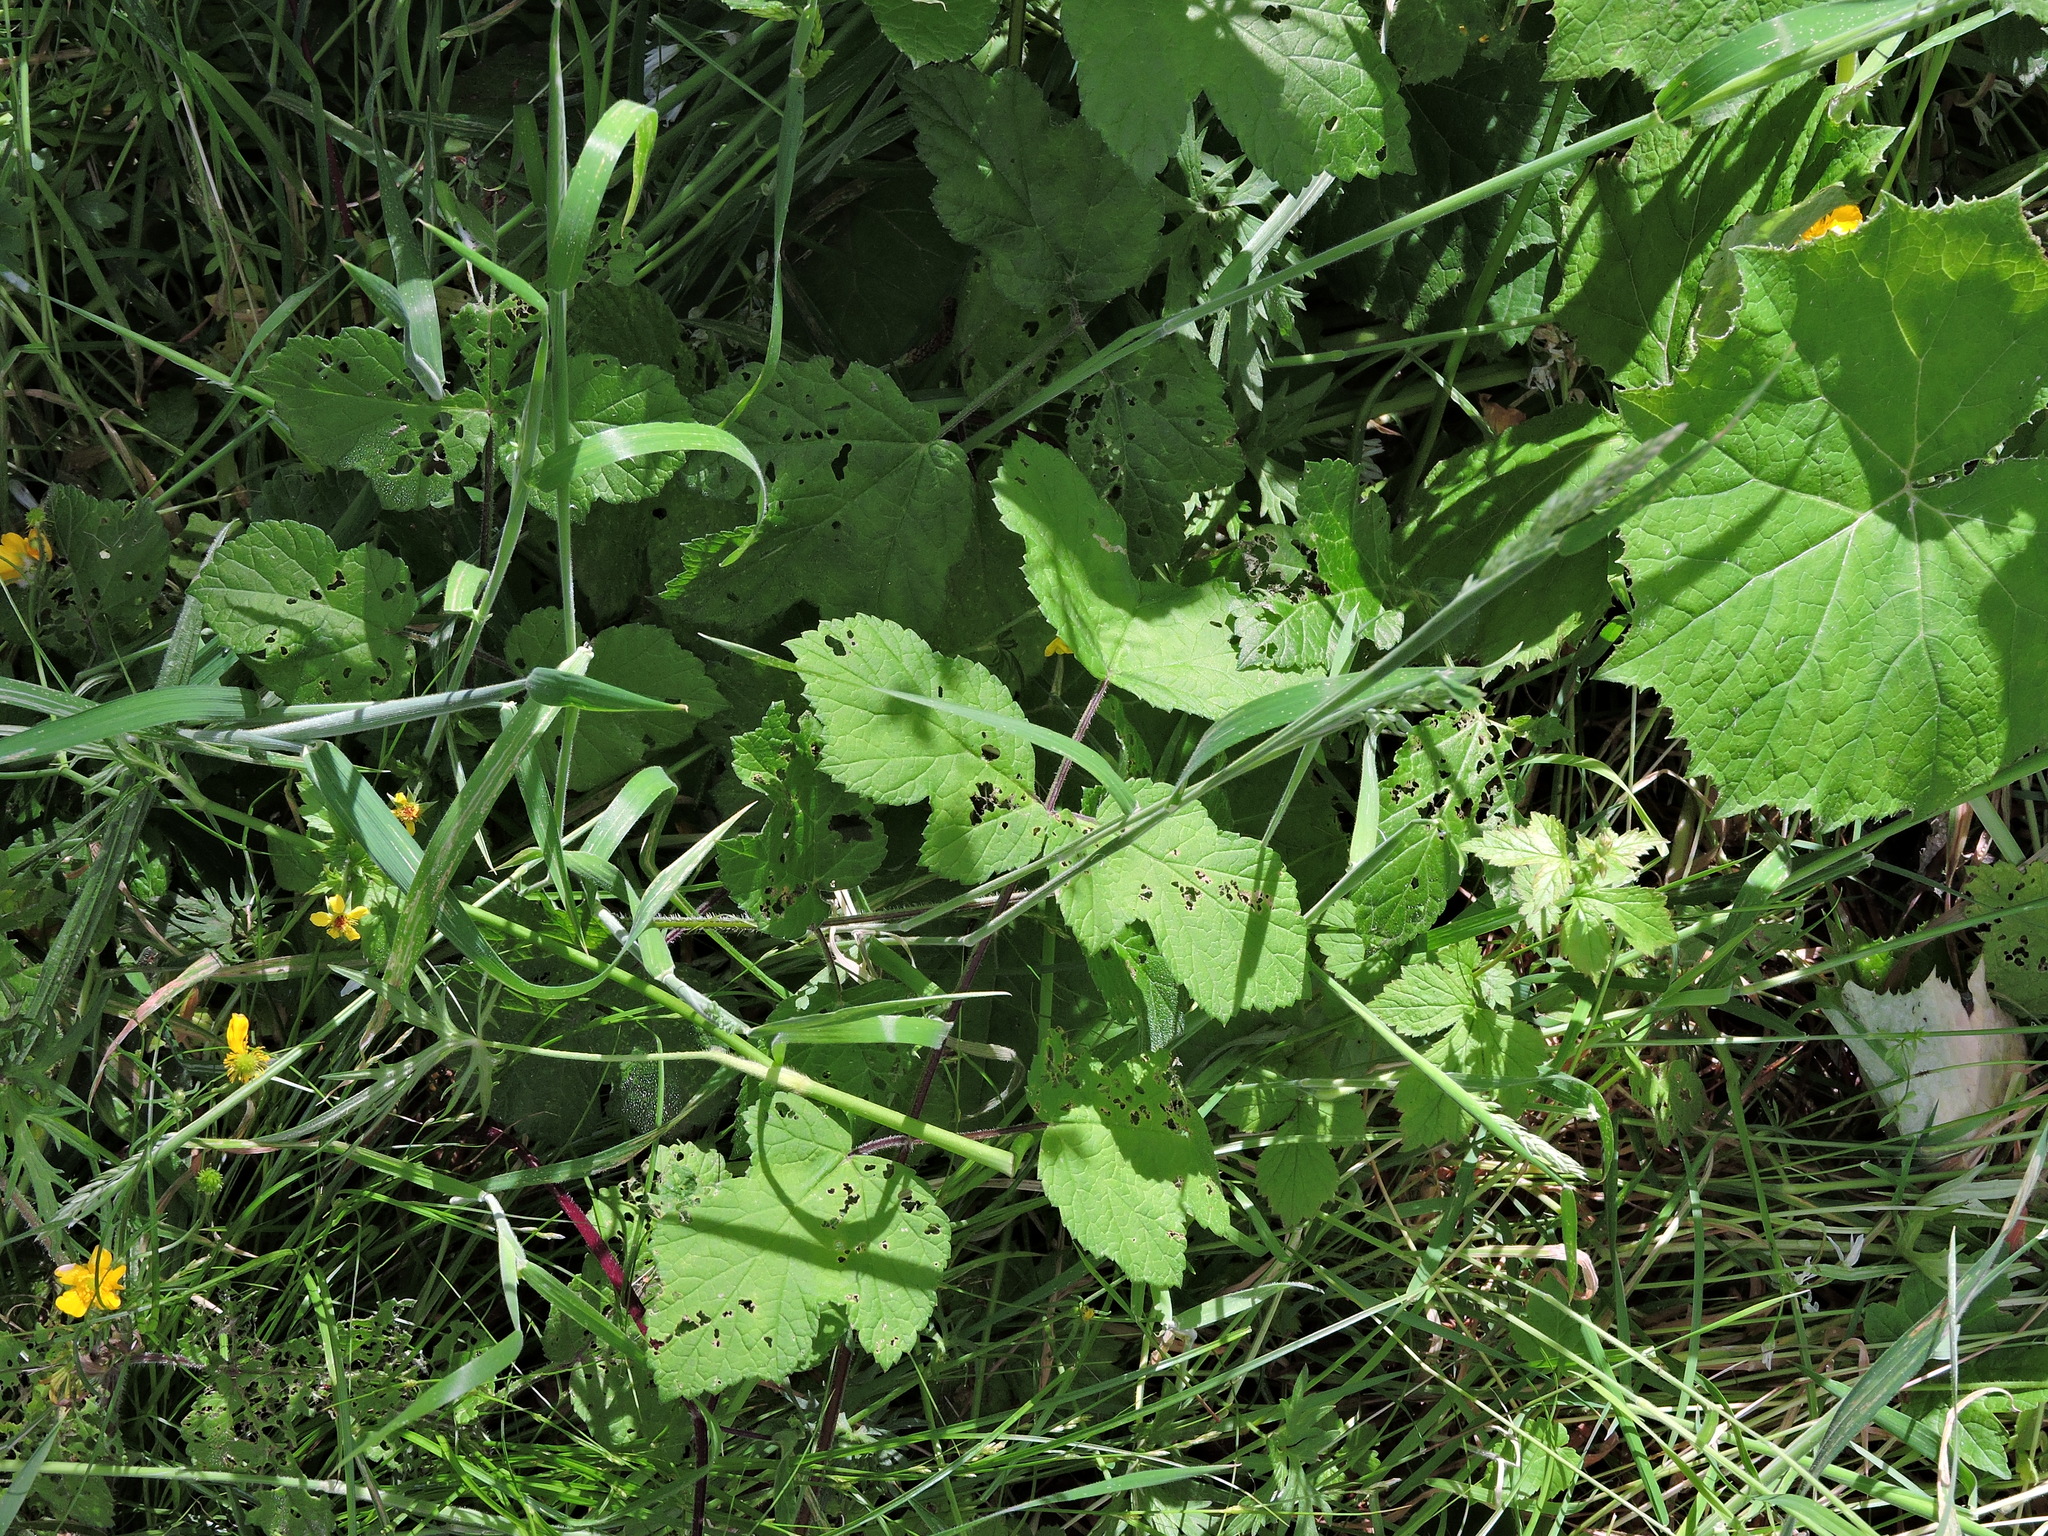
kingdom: Animalia
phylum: Arthropoda
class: Insecta
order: Coleoptera
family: Chrysomelidae
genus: Phaedon
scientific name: Phaedon tumidulus
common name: Celery leaf beetle
